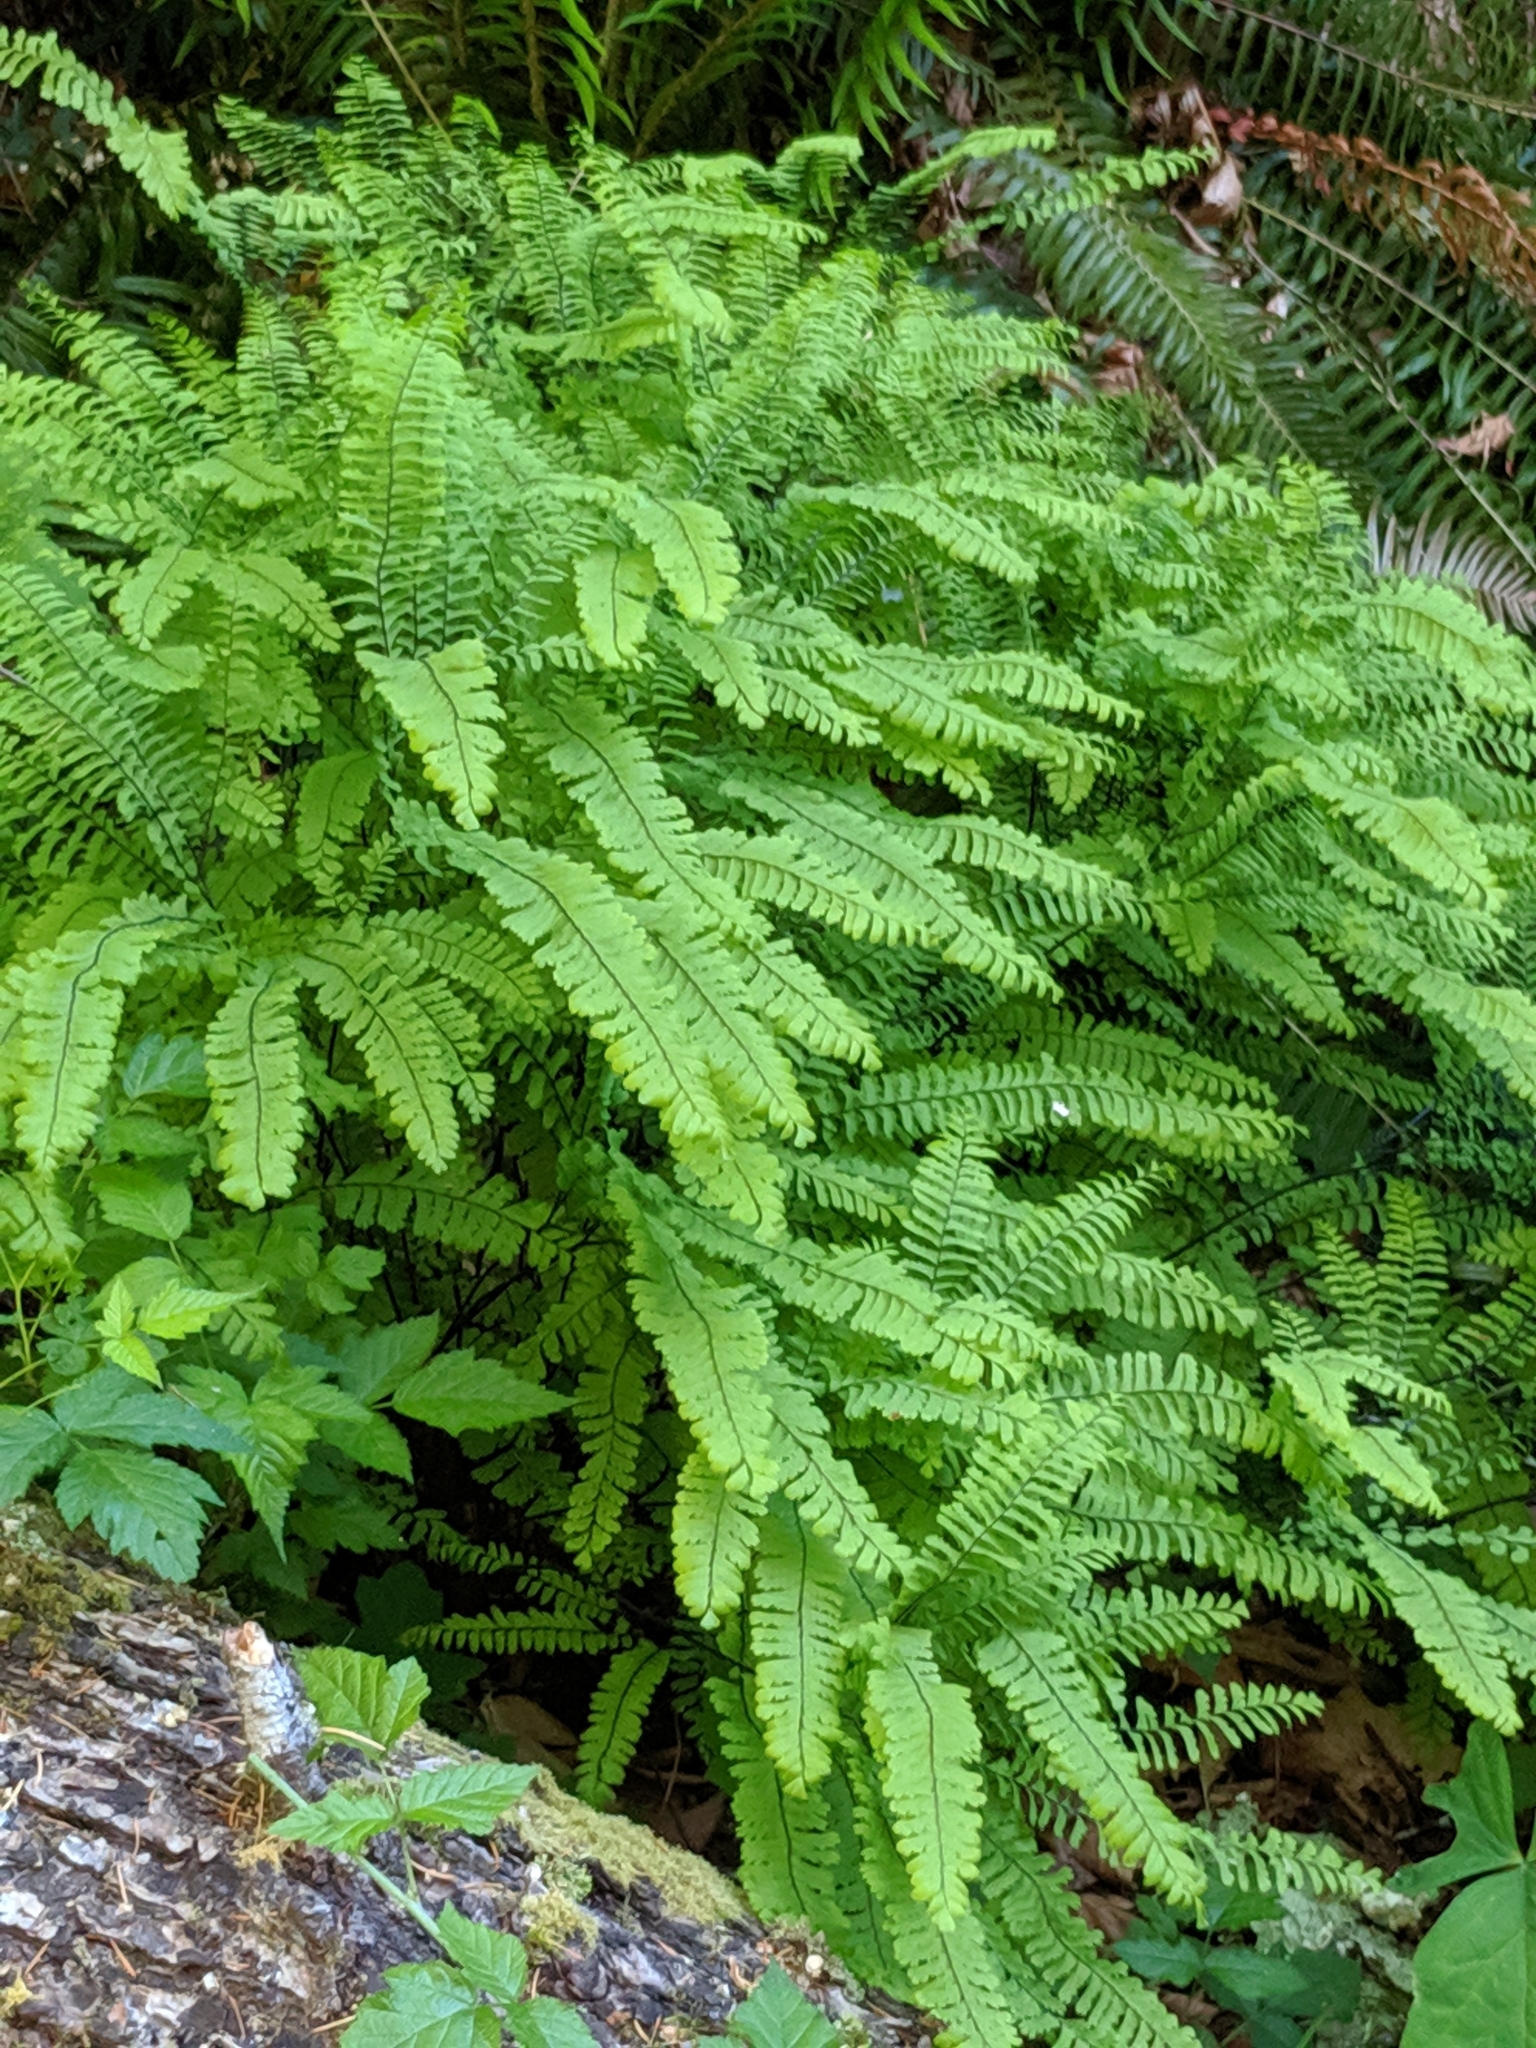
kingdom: Plantae
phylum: Tracheophyta
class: Polypodiopsida
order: Polypodiales
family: Pteridaceae
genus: Adiantum
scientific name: Adiantum aleuticum
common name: Aleutian maidenhair fern
